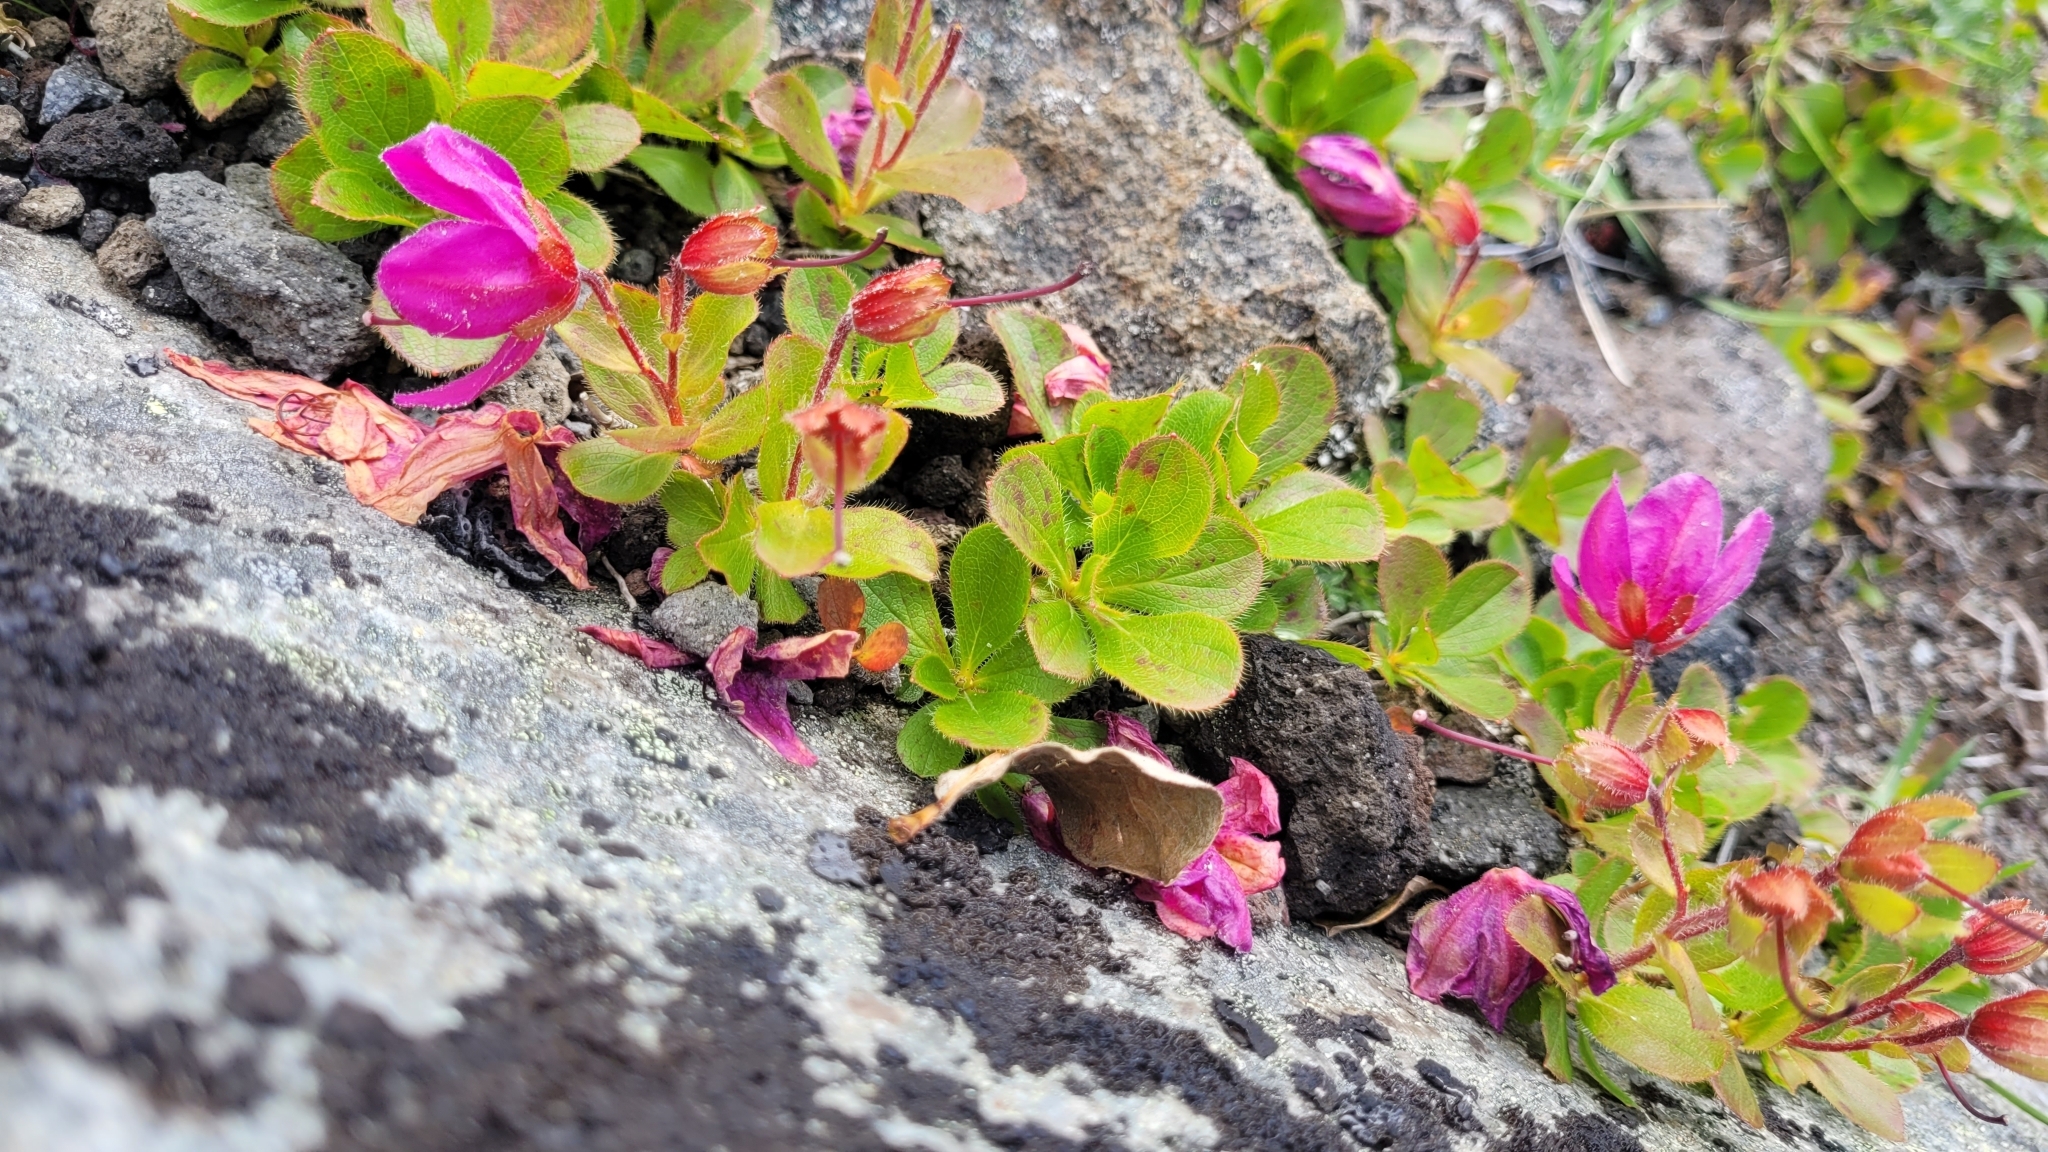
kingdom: Plantae
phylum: Tracheophyta
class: Magnoliopsida
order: Ericales
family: Ericaceae
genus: Rhododendron
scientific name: Rhododendron camtschaticum
